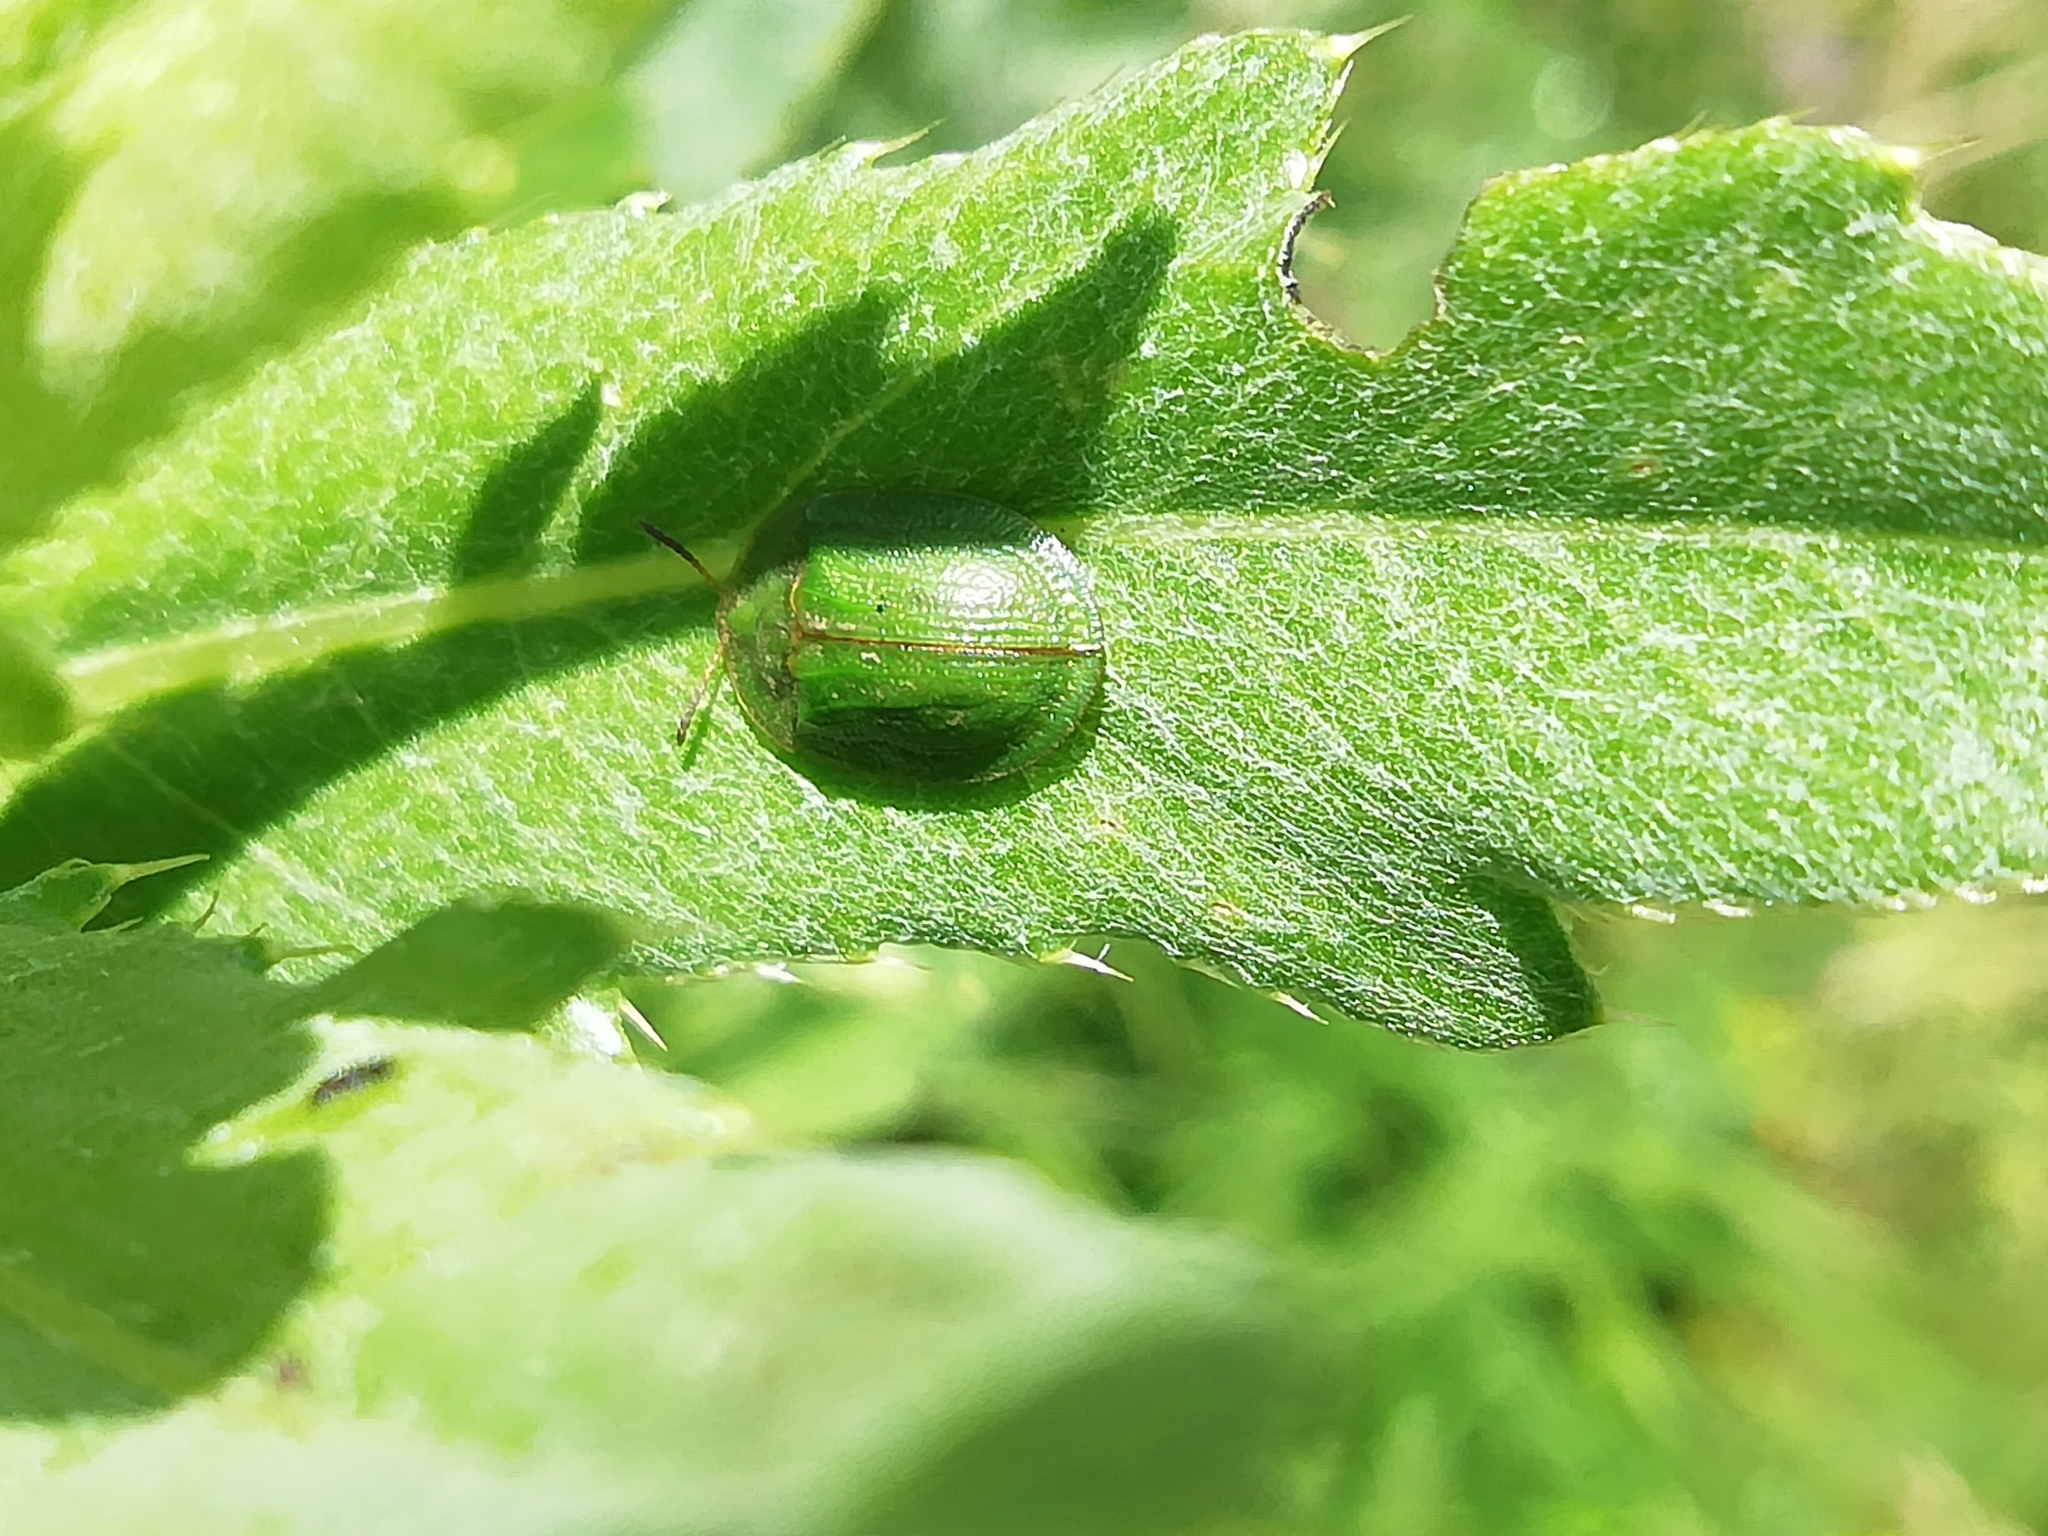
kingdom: Animalia
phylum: Arthropoda
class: Insecta
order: Coleoptera
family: Chrysomelidae
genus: Cassida
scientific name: Cassida rubiginosa
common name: Thistle tortoise beetle
